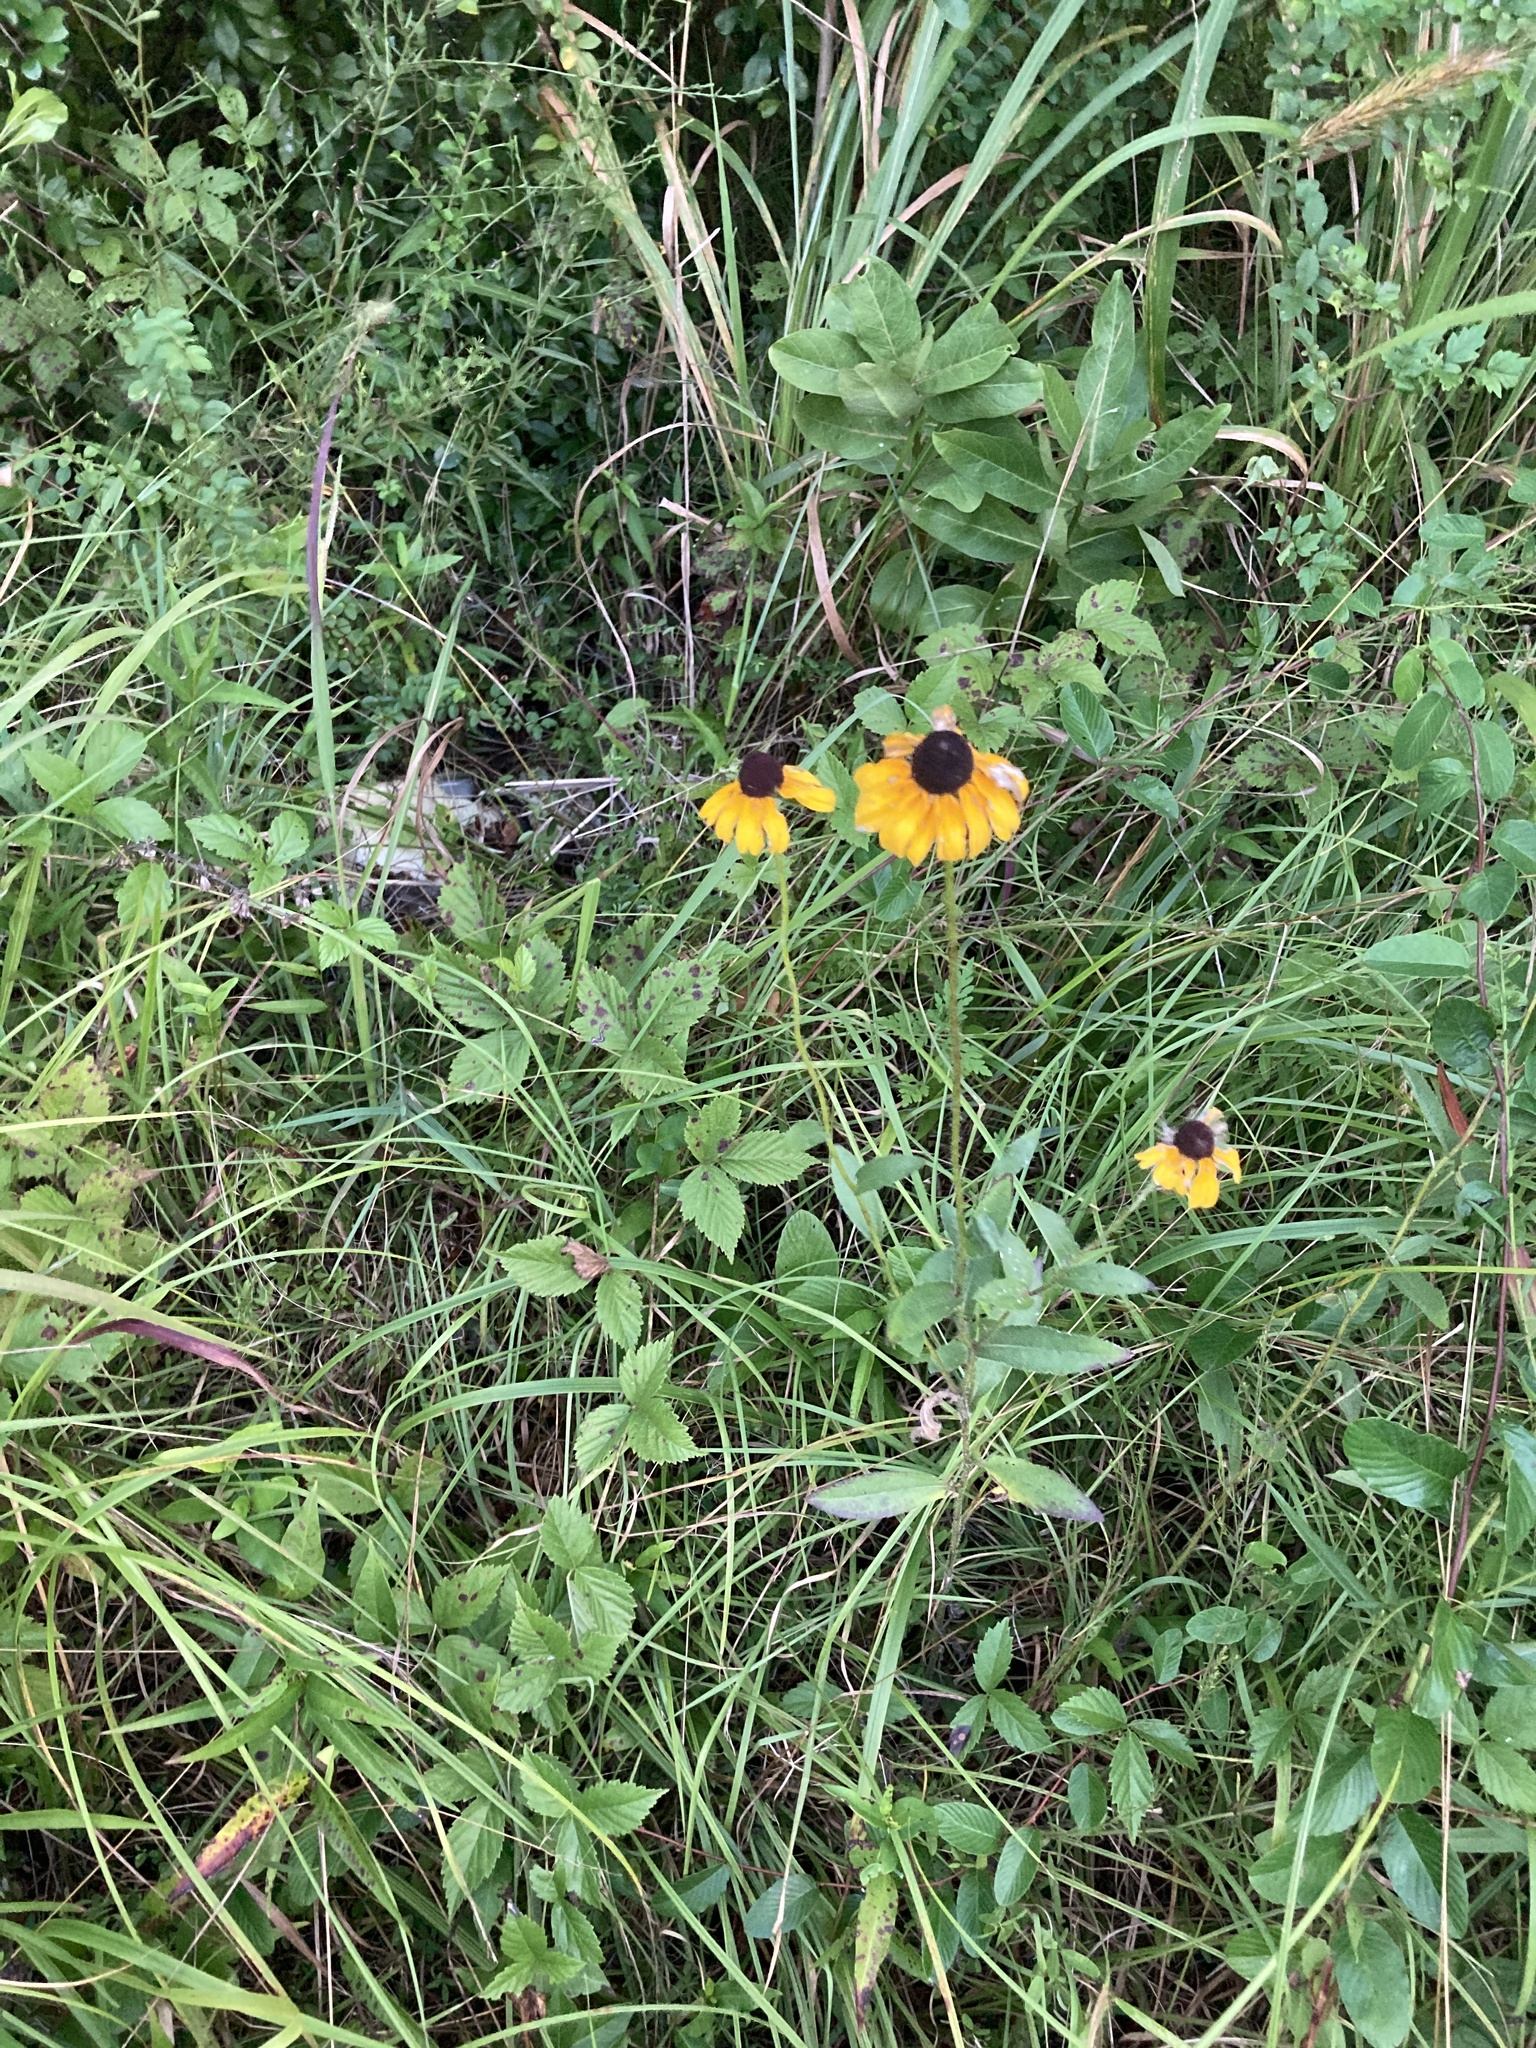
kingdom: Plantae
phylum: Tracheophyta
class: Magnoliopsida
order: Asterales
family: Asteraceae
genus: Rudbeckia
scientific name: Rudbeckia hirta
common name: Black-eyed-susan
